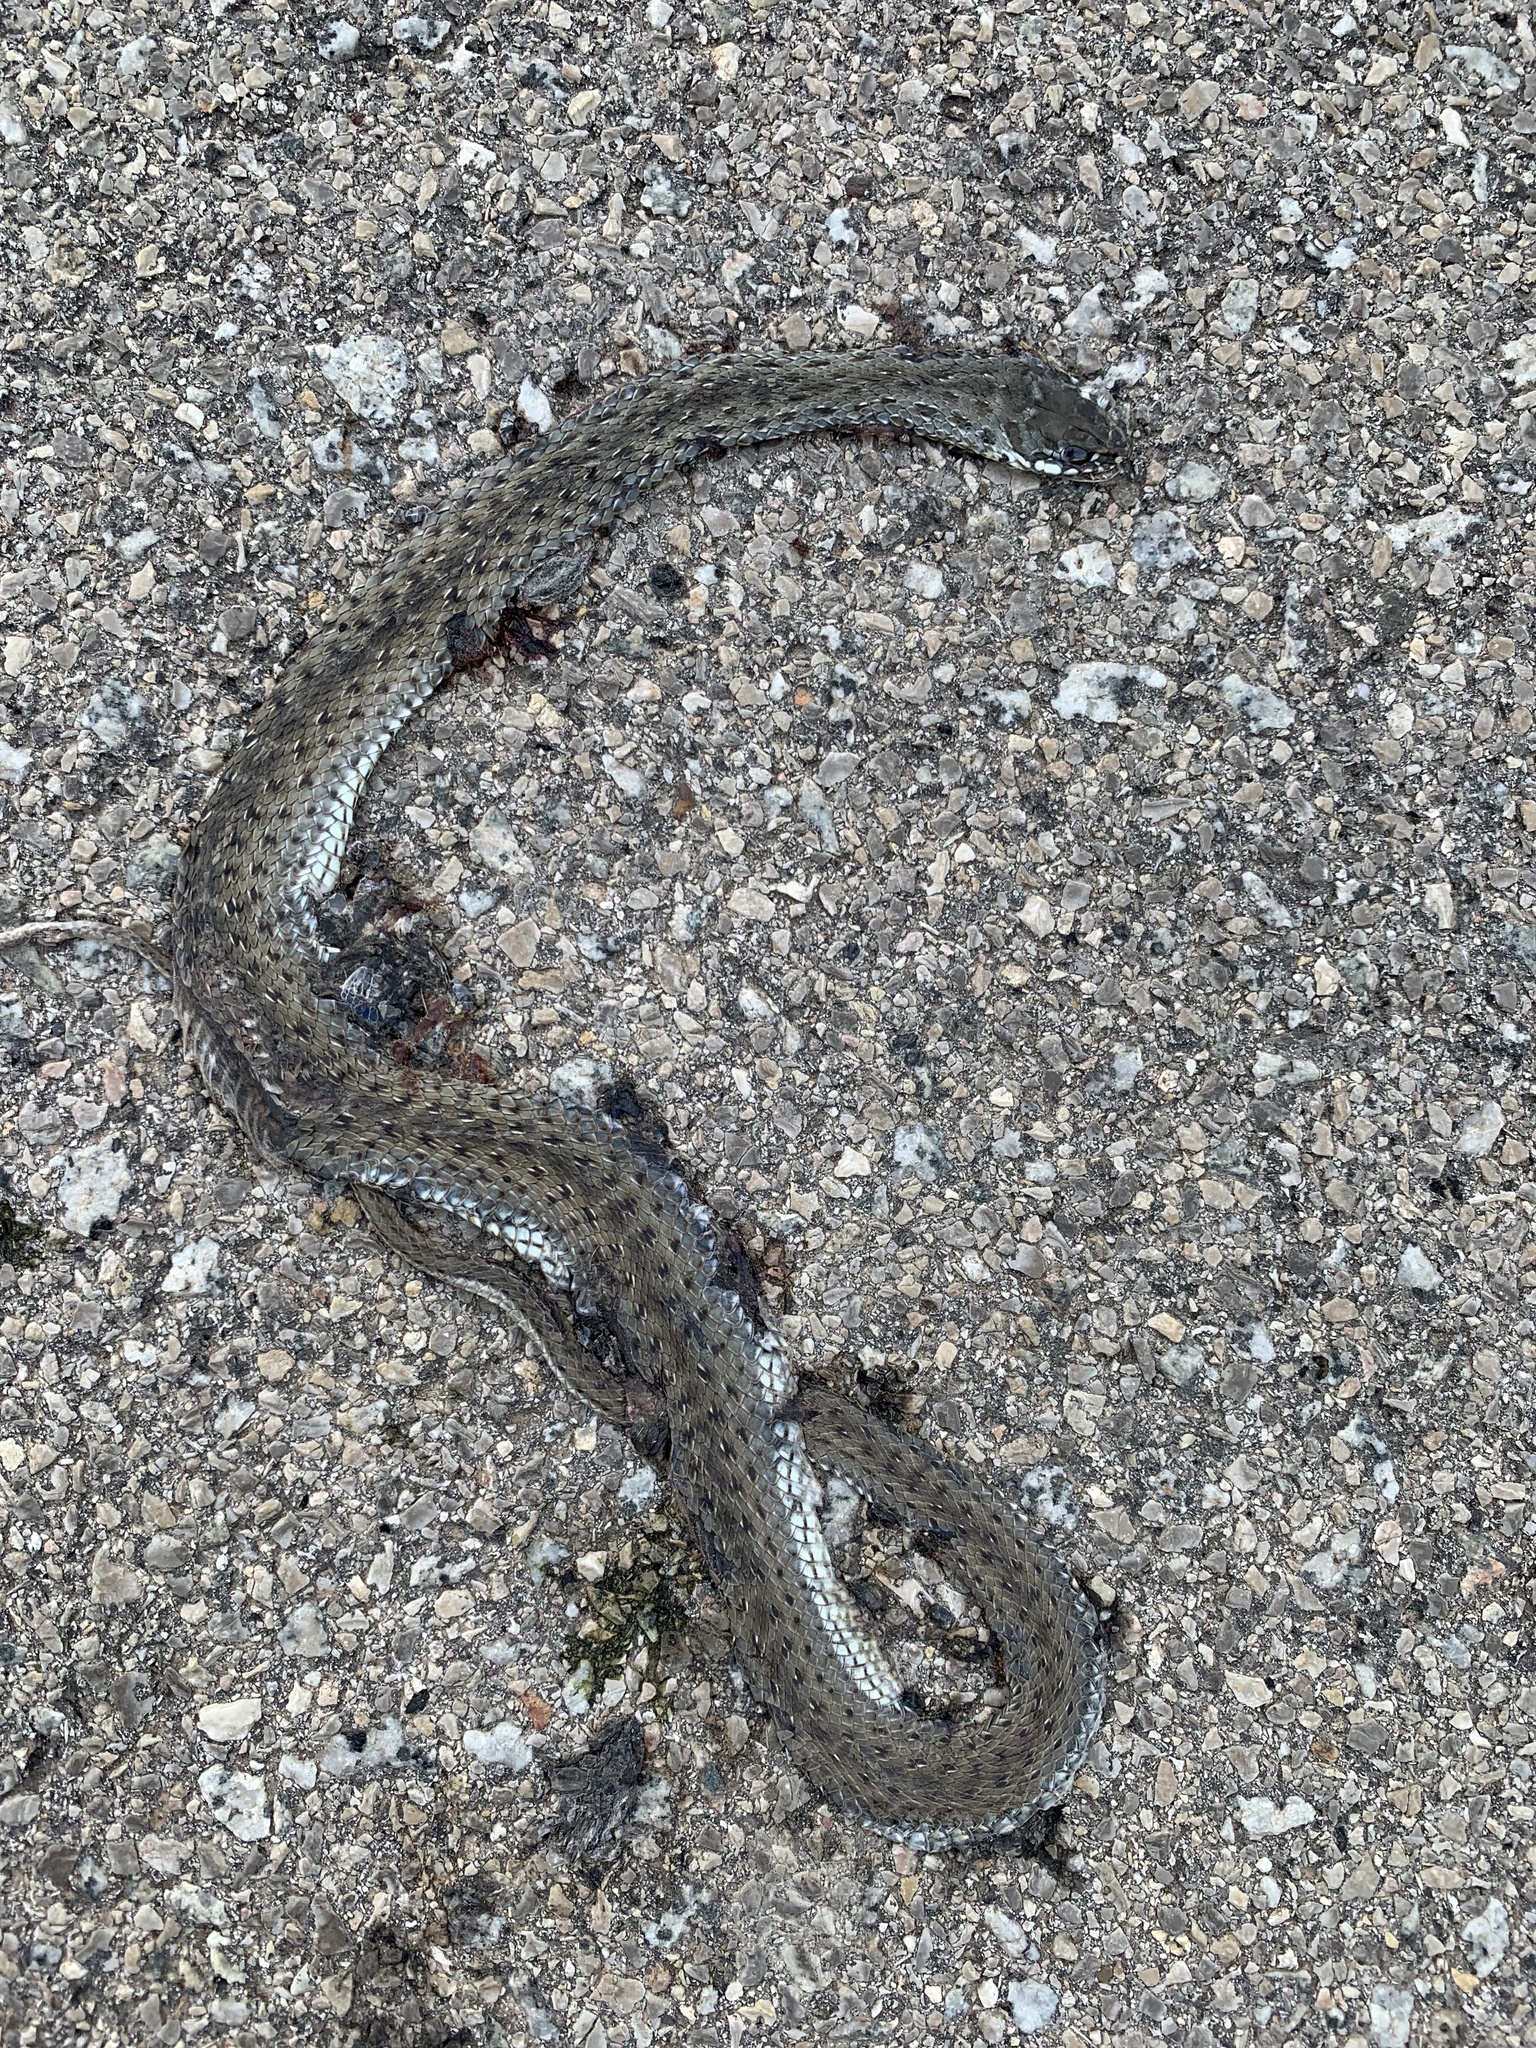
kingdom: Animalia
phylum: Chordata
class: Squamata
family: Psammophiidae
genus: Malpolon
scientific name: Malpolon monspessulanus
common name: Montpellier snake
